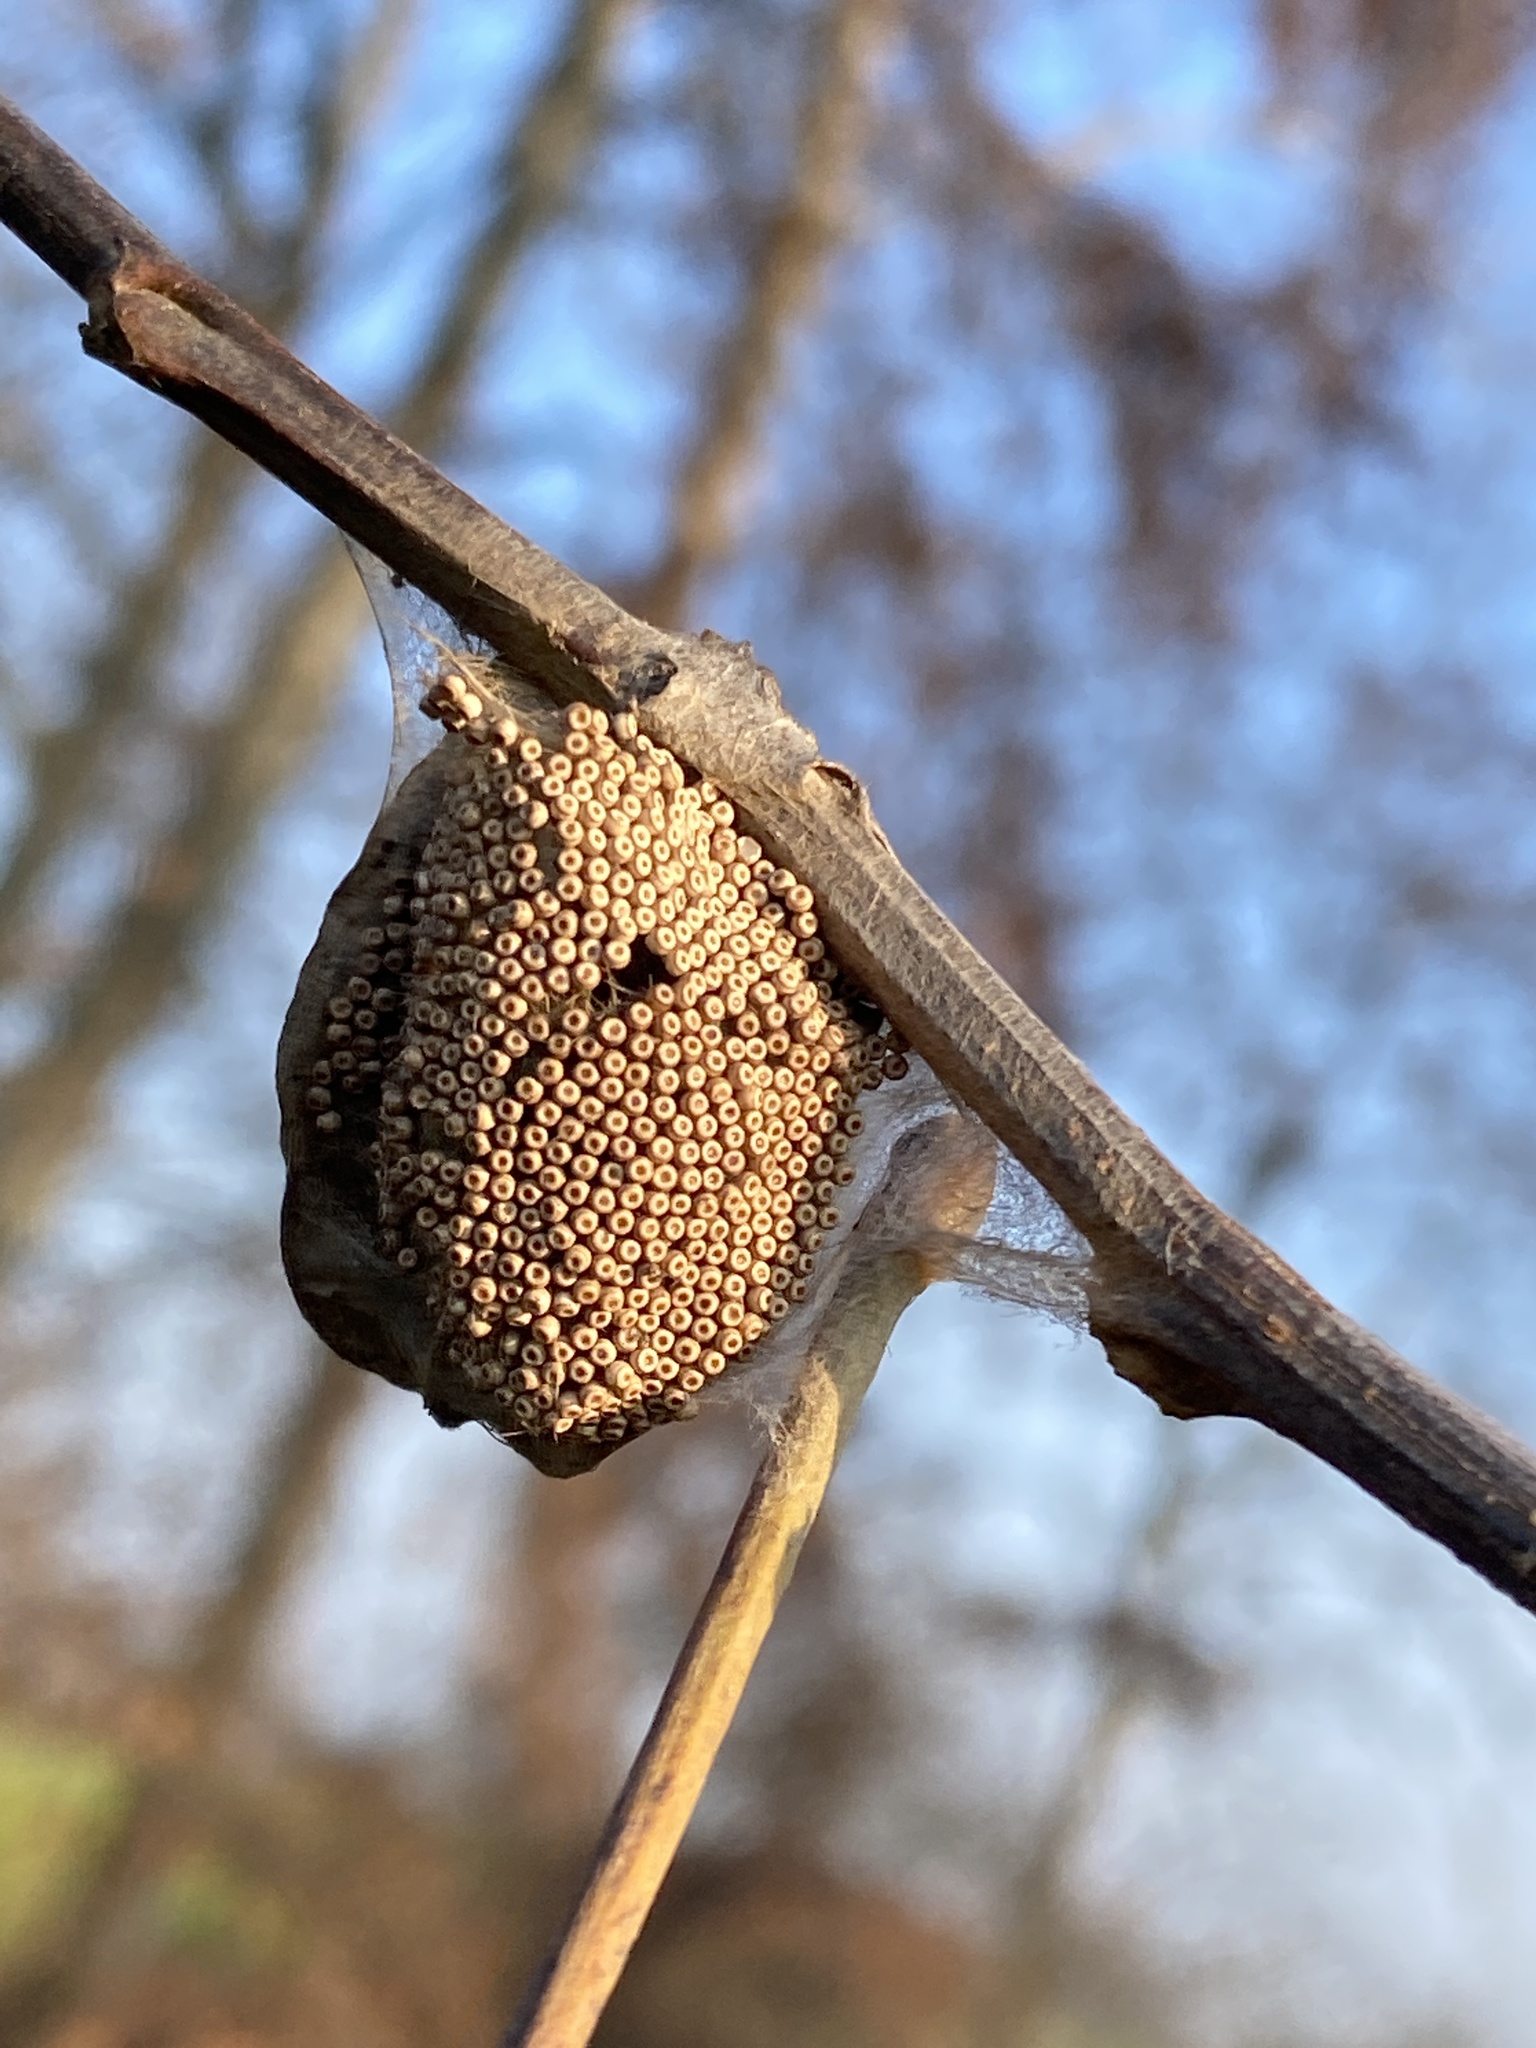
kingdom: Animalia
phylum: Arthropoda
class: Insecta
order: Lepidoptera
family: Erebidae
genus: Orgyia
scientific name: Orgyia antiqua
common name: Vapourer
